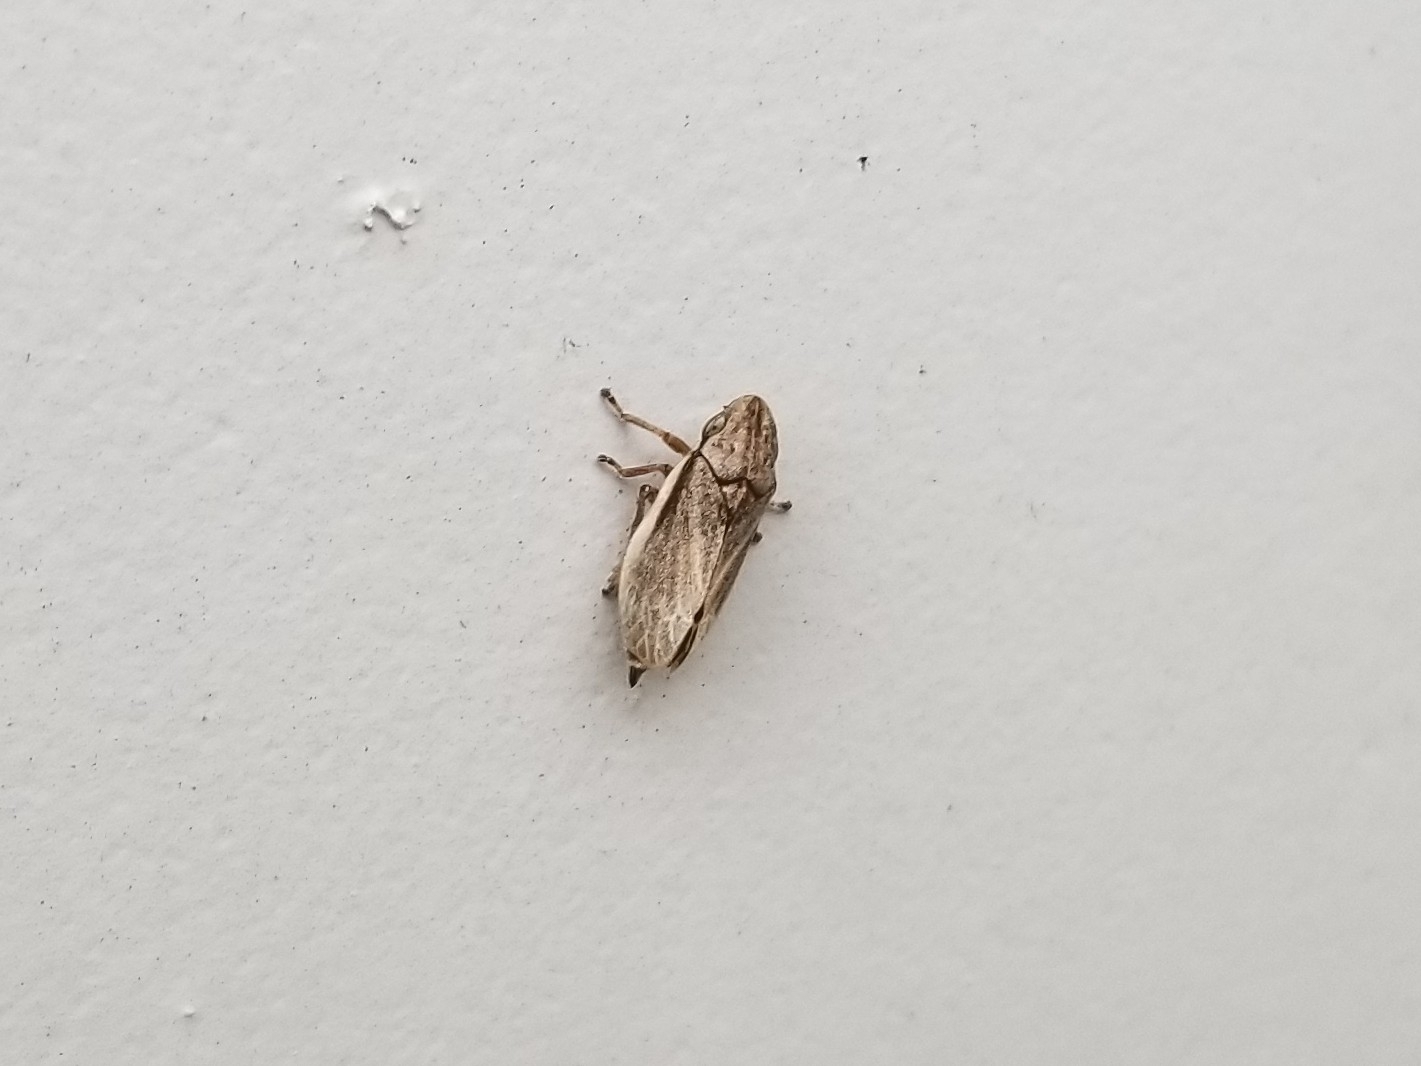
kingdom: Animalia
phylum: Arthropoda
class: Insecta
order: Hemiptera
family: Aphrophoridae
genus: Philaenarcys
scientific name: Philaenarcys bilineata
